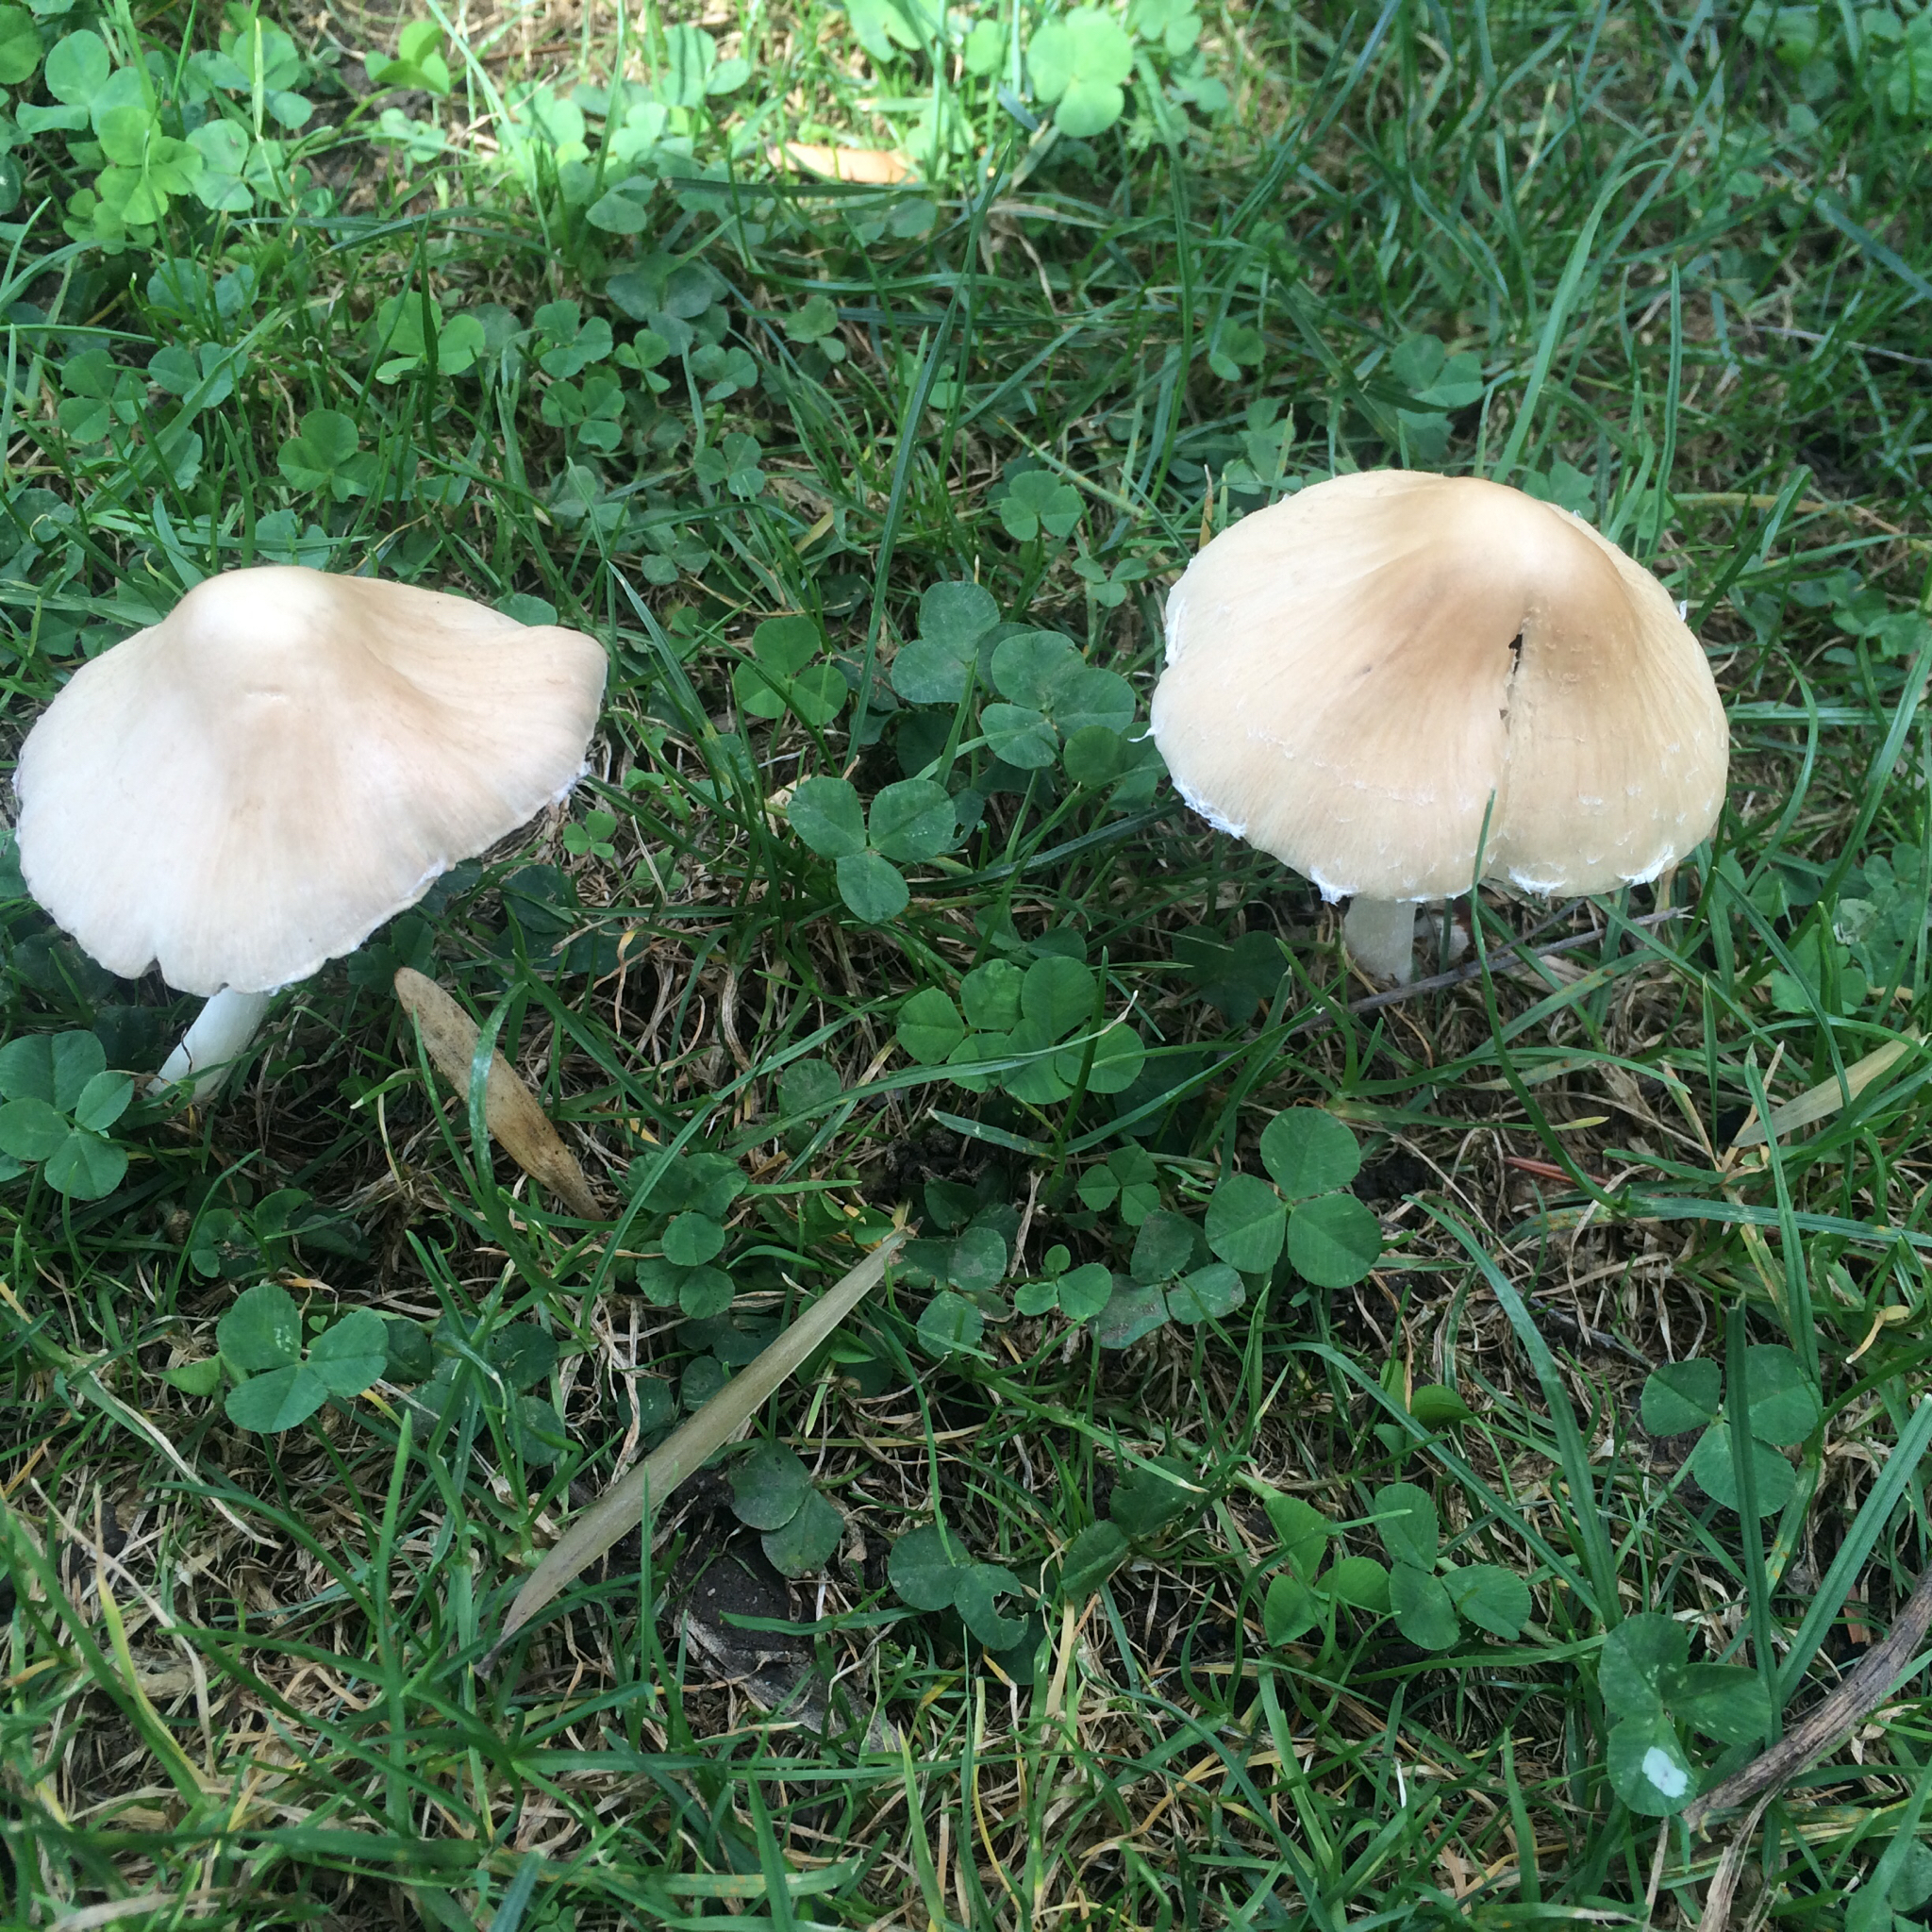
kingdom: Fungi
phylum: Basidiomycota
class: Agaricomycetes
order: Agaricales
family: Psathyrellaceae
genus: Candolleomyces
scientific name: Candolleomyces candolleanus
